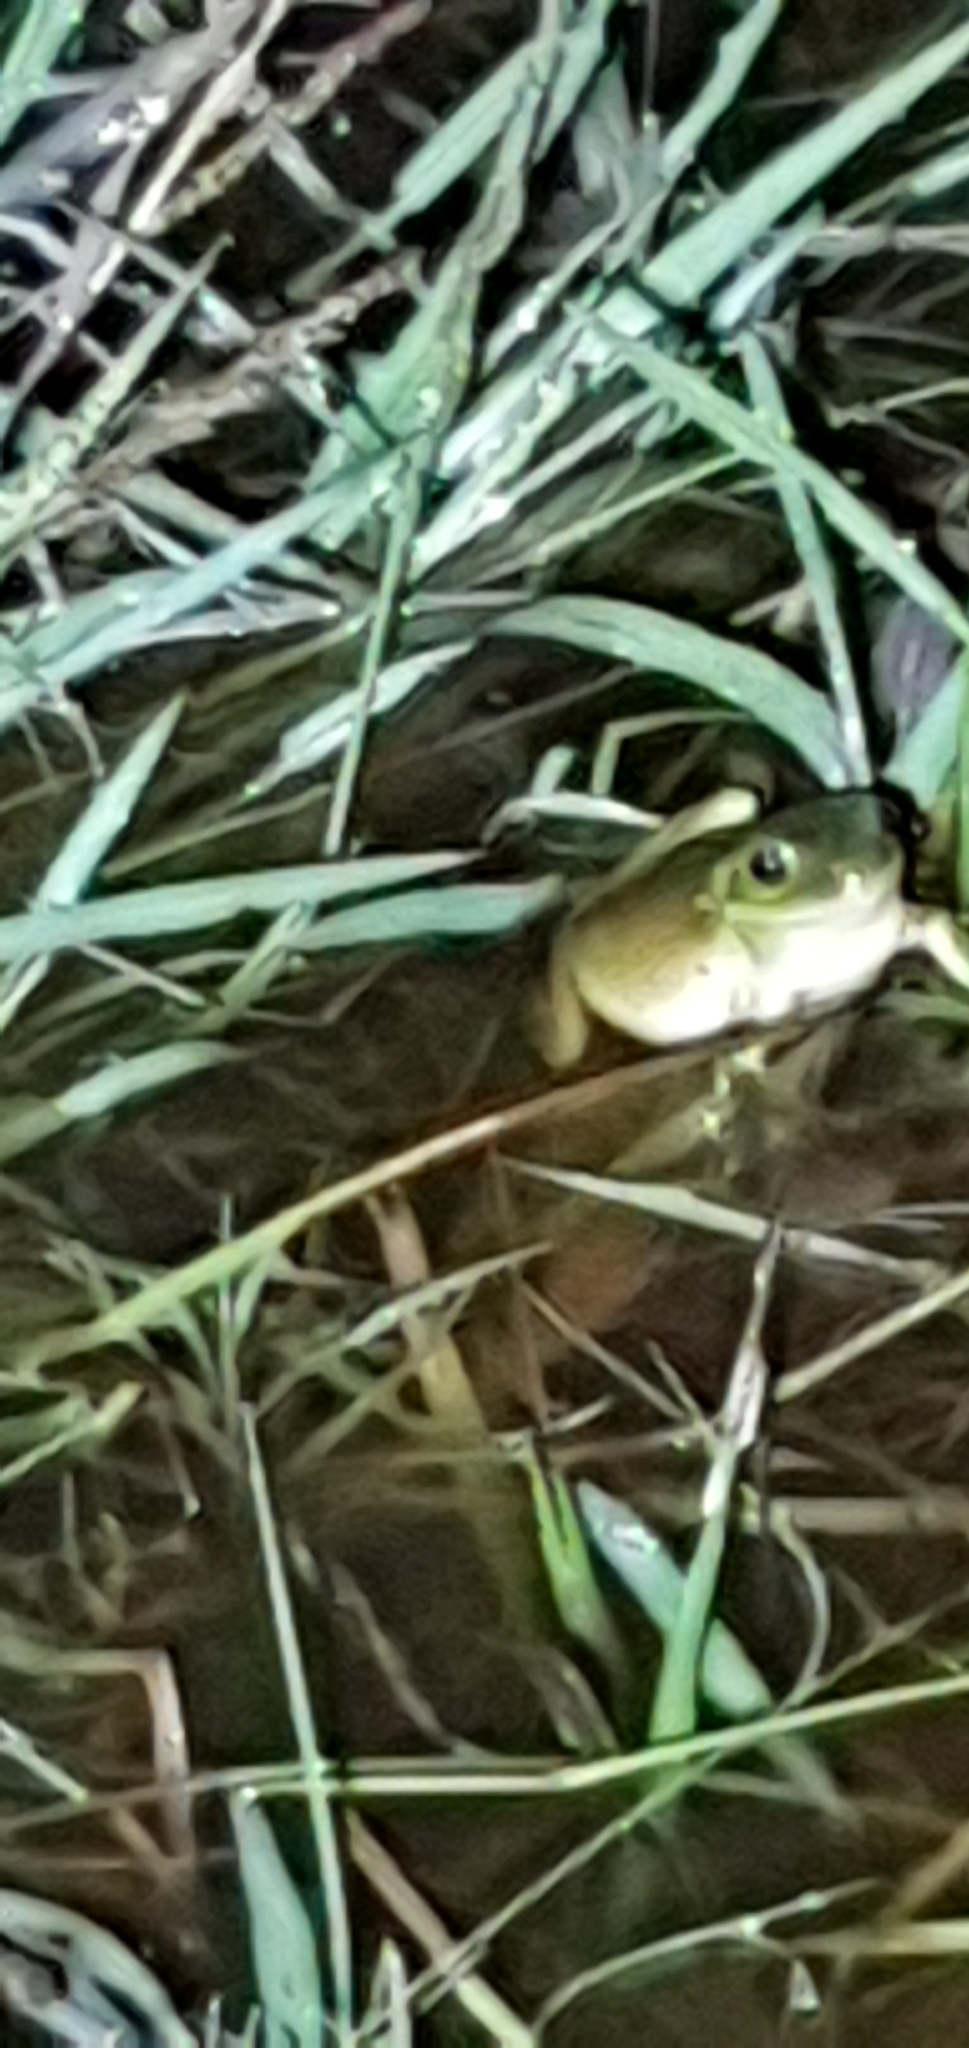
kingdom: Animalia
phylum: Chordata
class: Amphibia
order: Anura
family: Pelodryadidae
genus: Ranoidea
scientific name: Ranoidea caerulea
